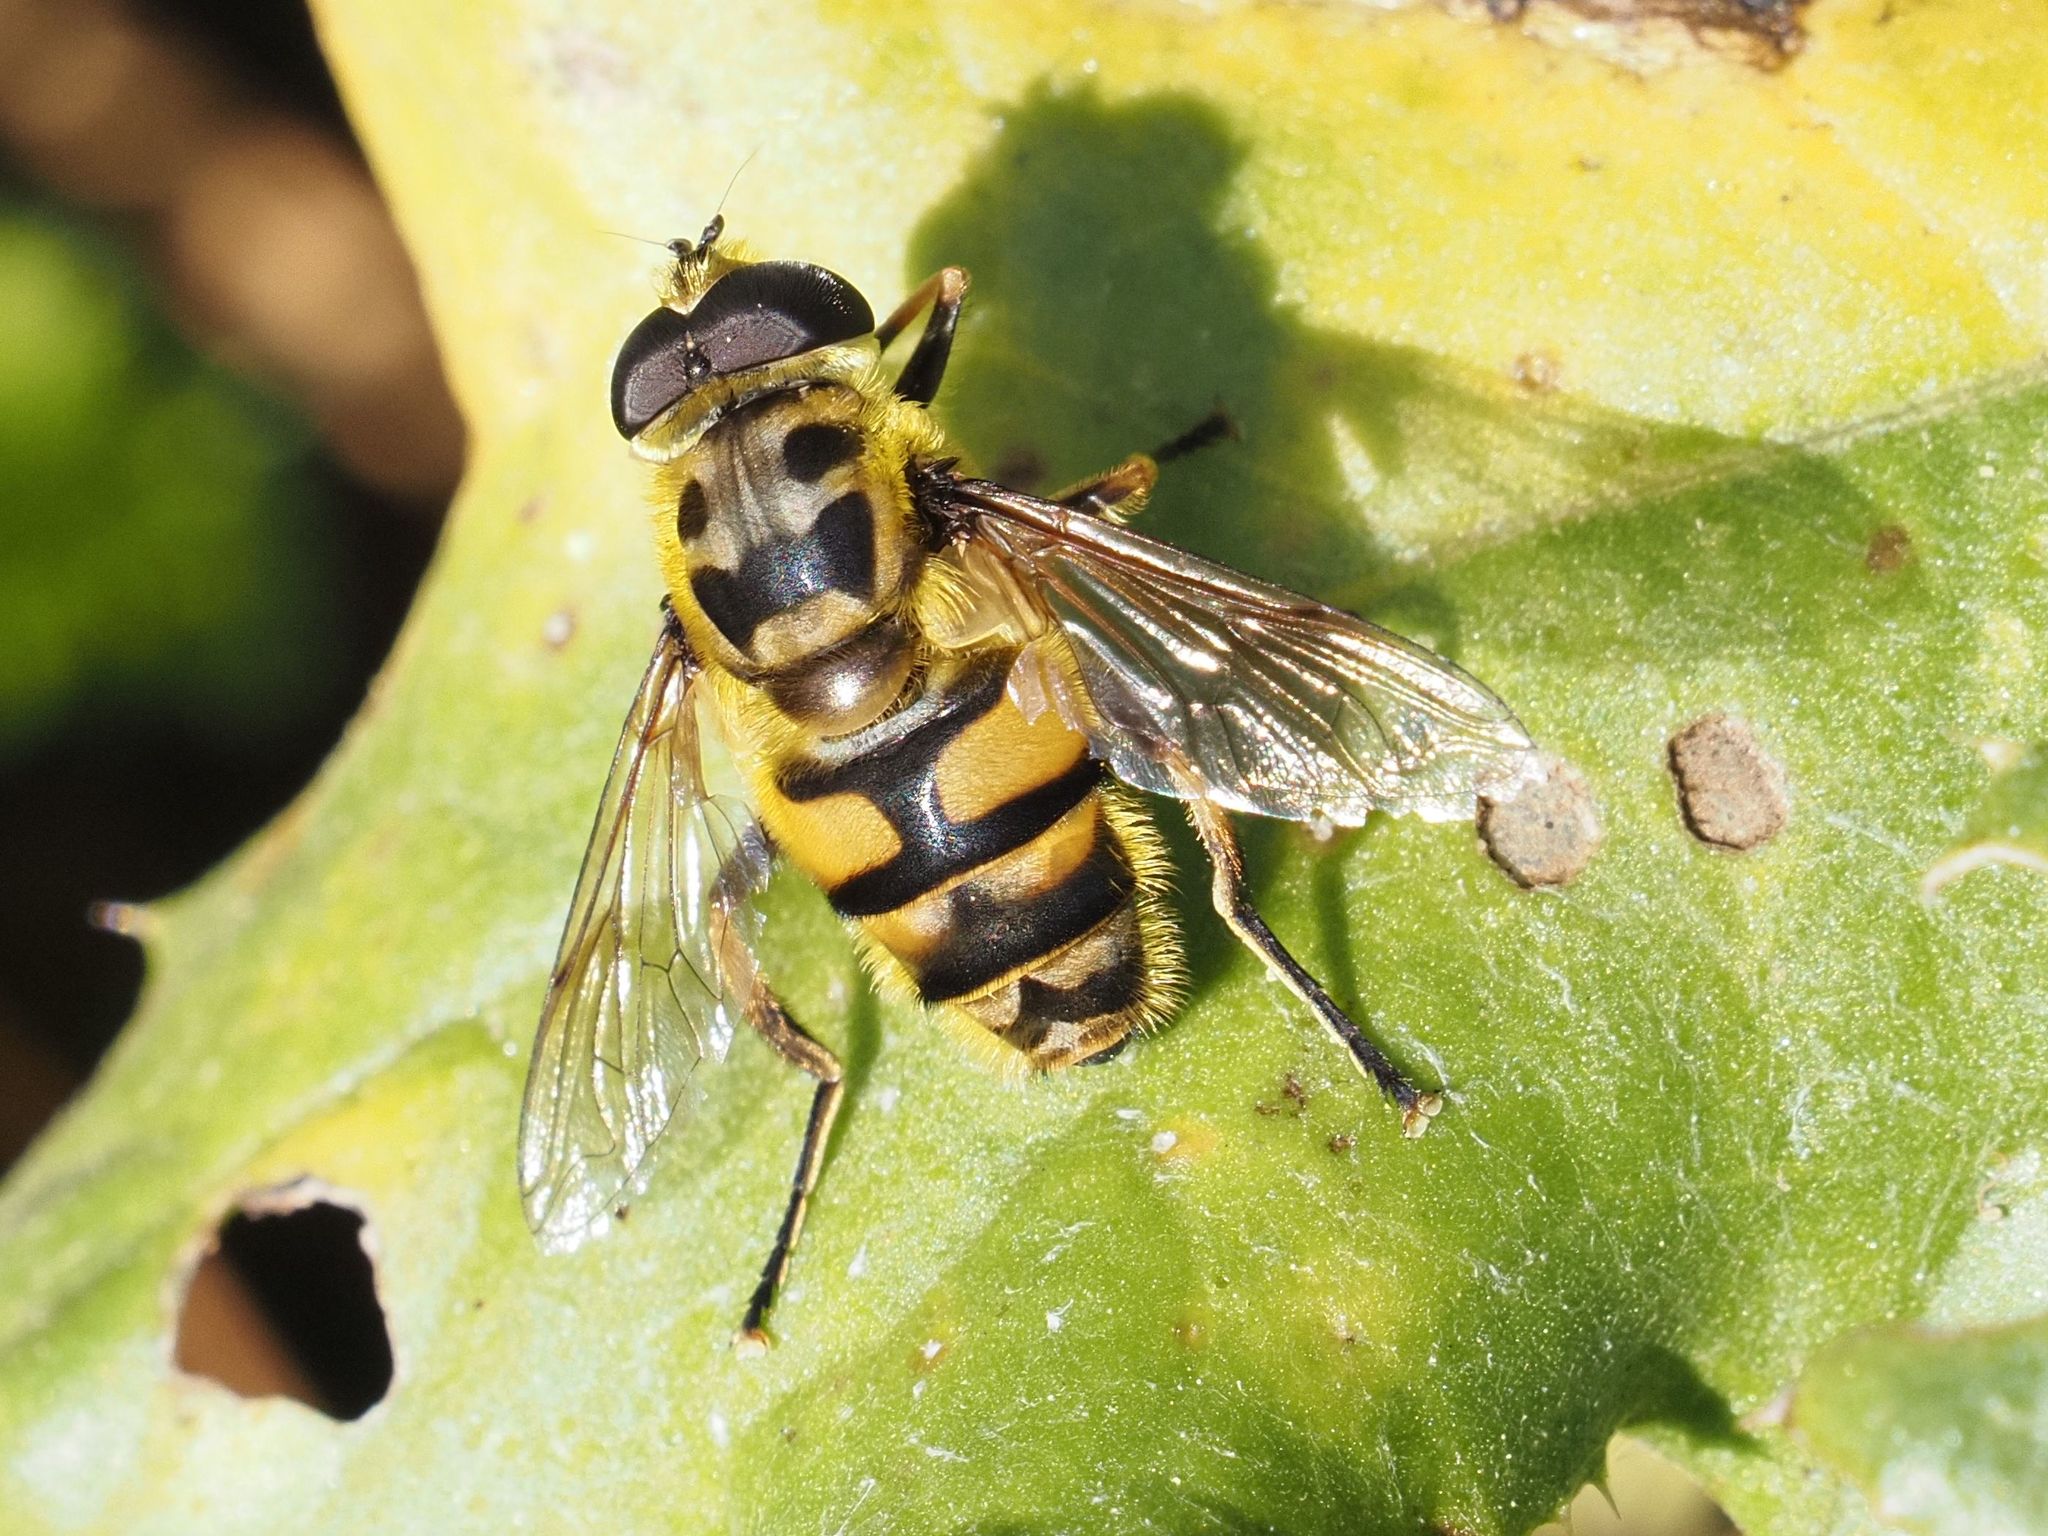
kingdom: Animalia
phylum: Arthropoda
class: Insecta
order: Diptera
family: Syrphidae
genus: Myathropa
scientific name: Myathropa florea
